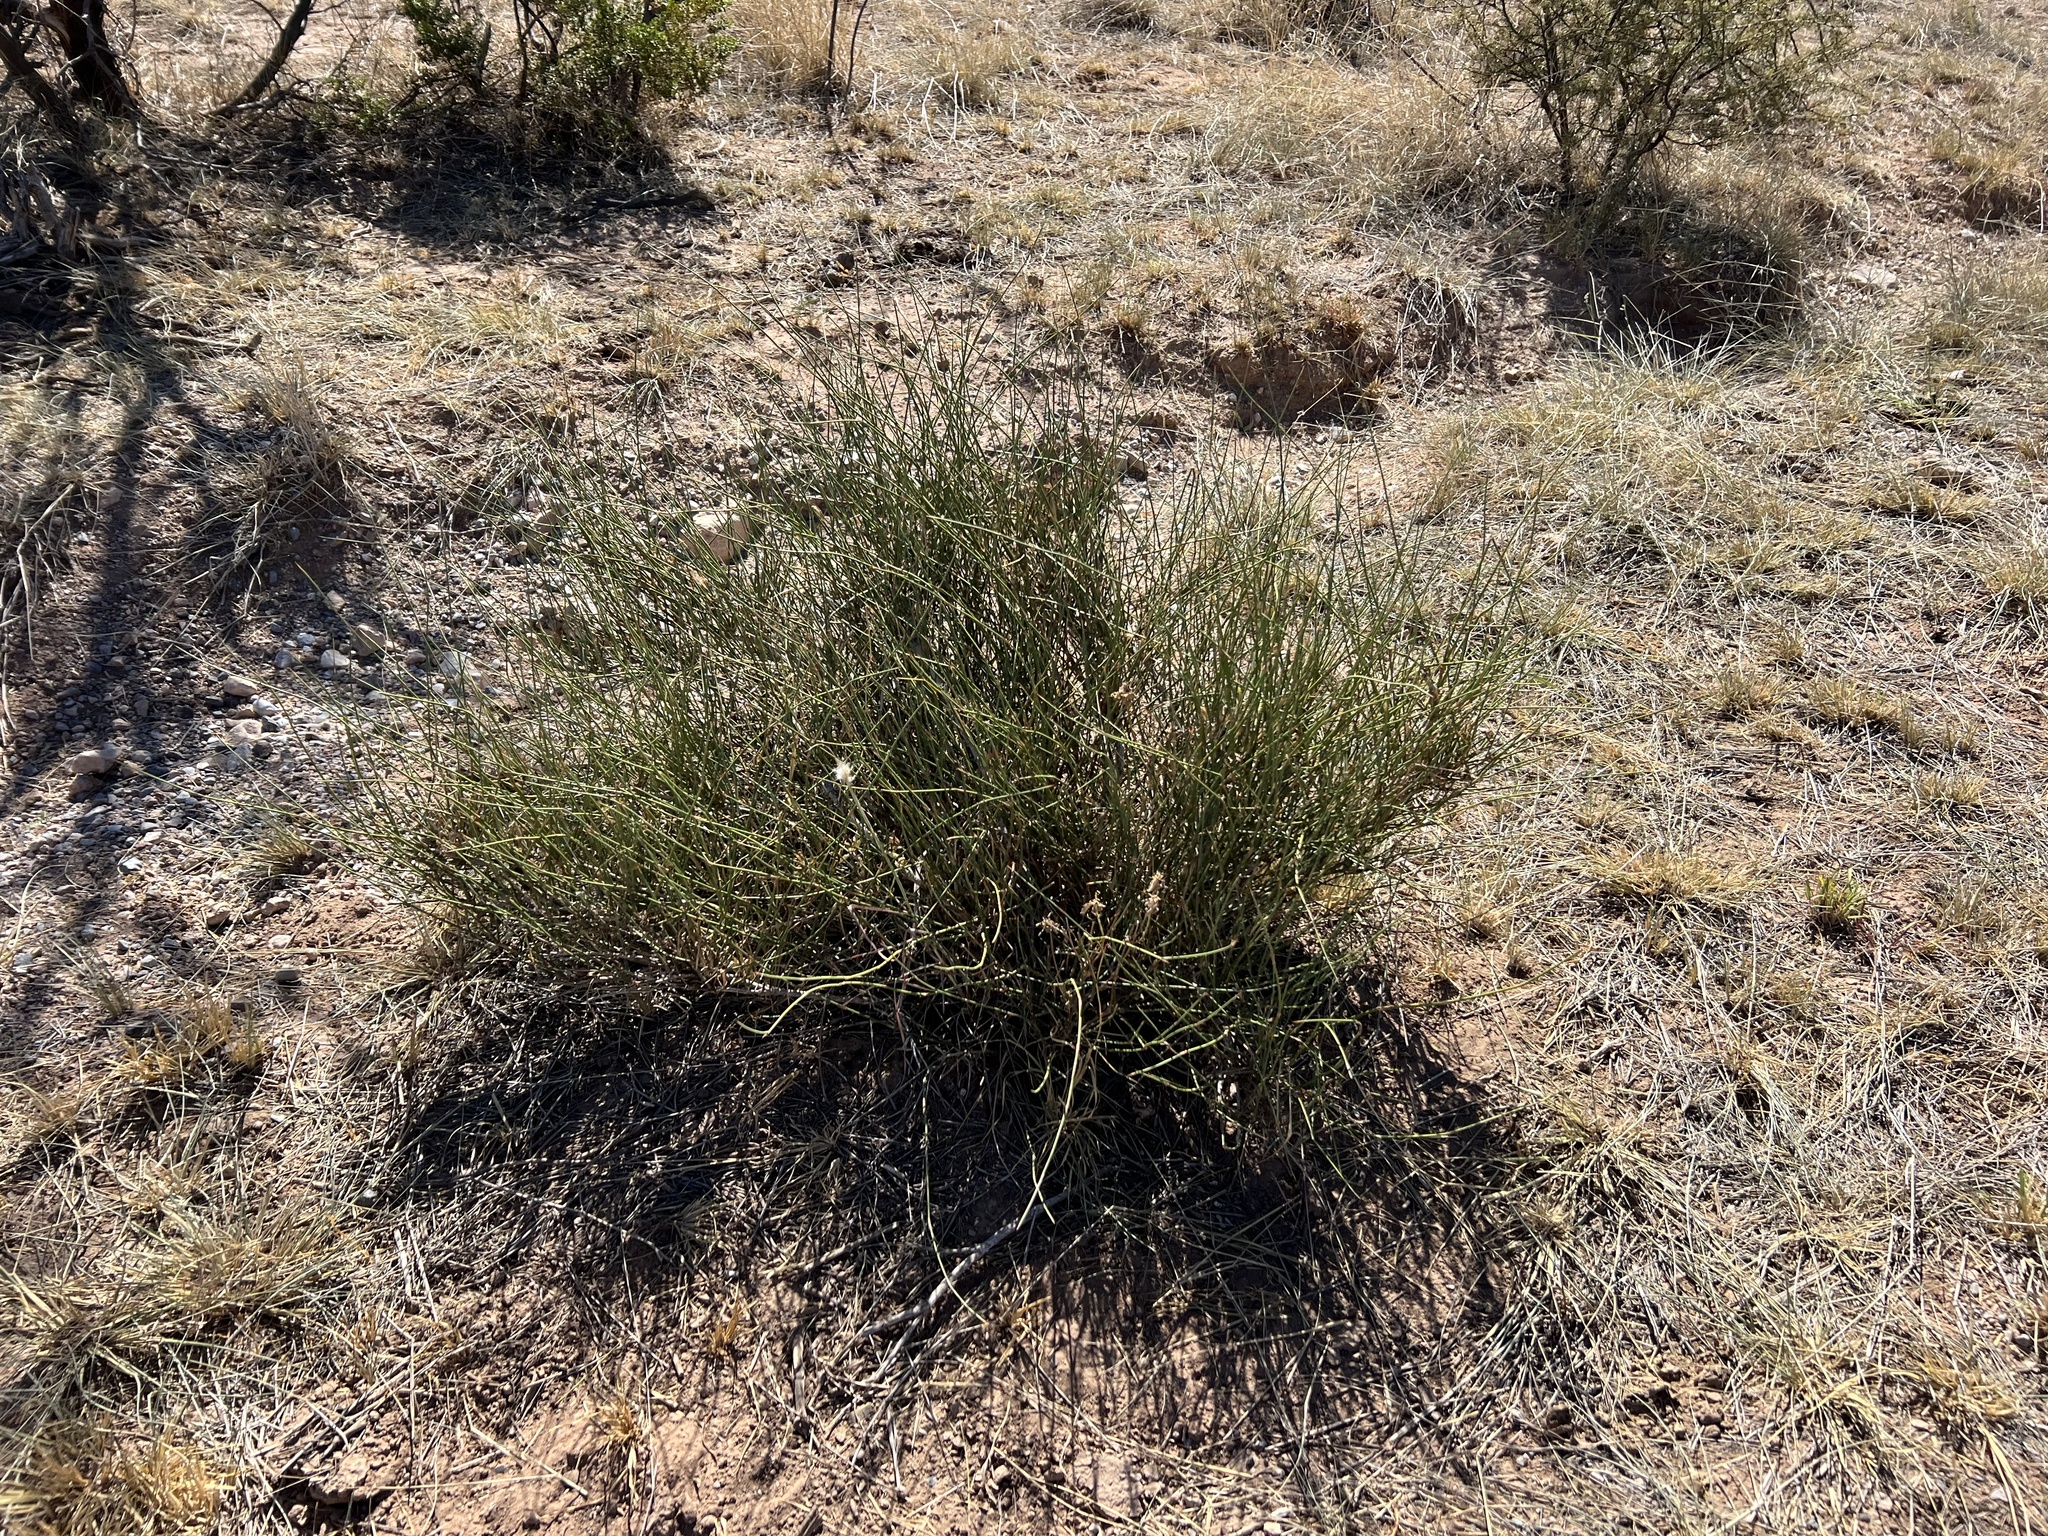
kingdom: Plantae
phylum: Tracheophyta
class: Gnetopsida
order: Ephedrales
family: Ephedraceae
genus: Ephedra
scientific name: Ephedra trifurca
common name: Mexican-tea
